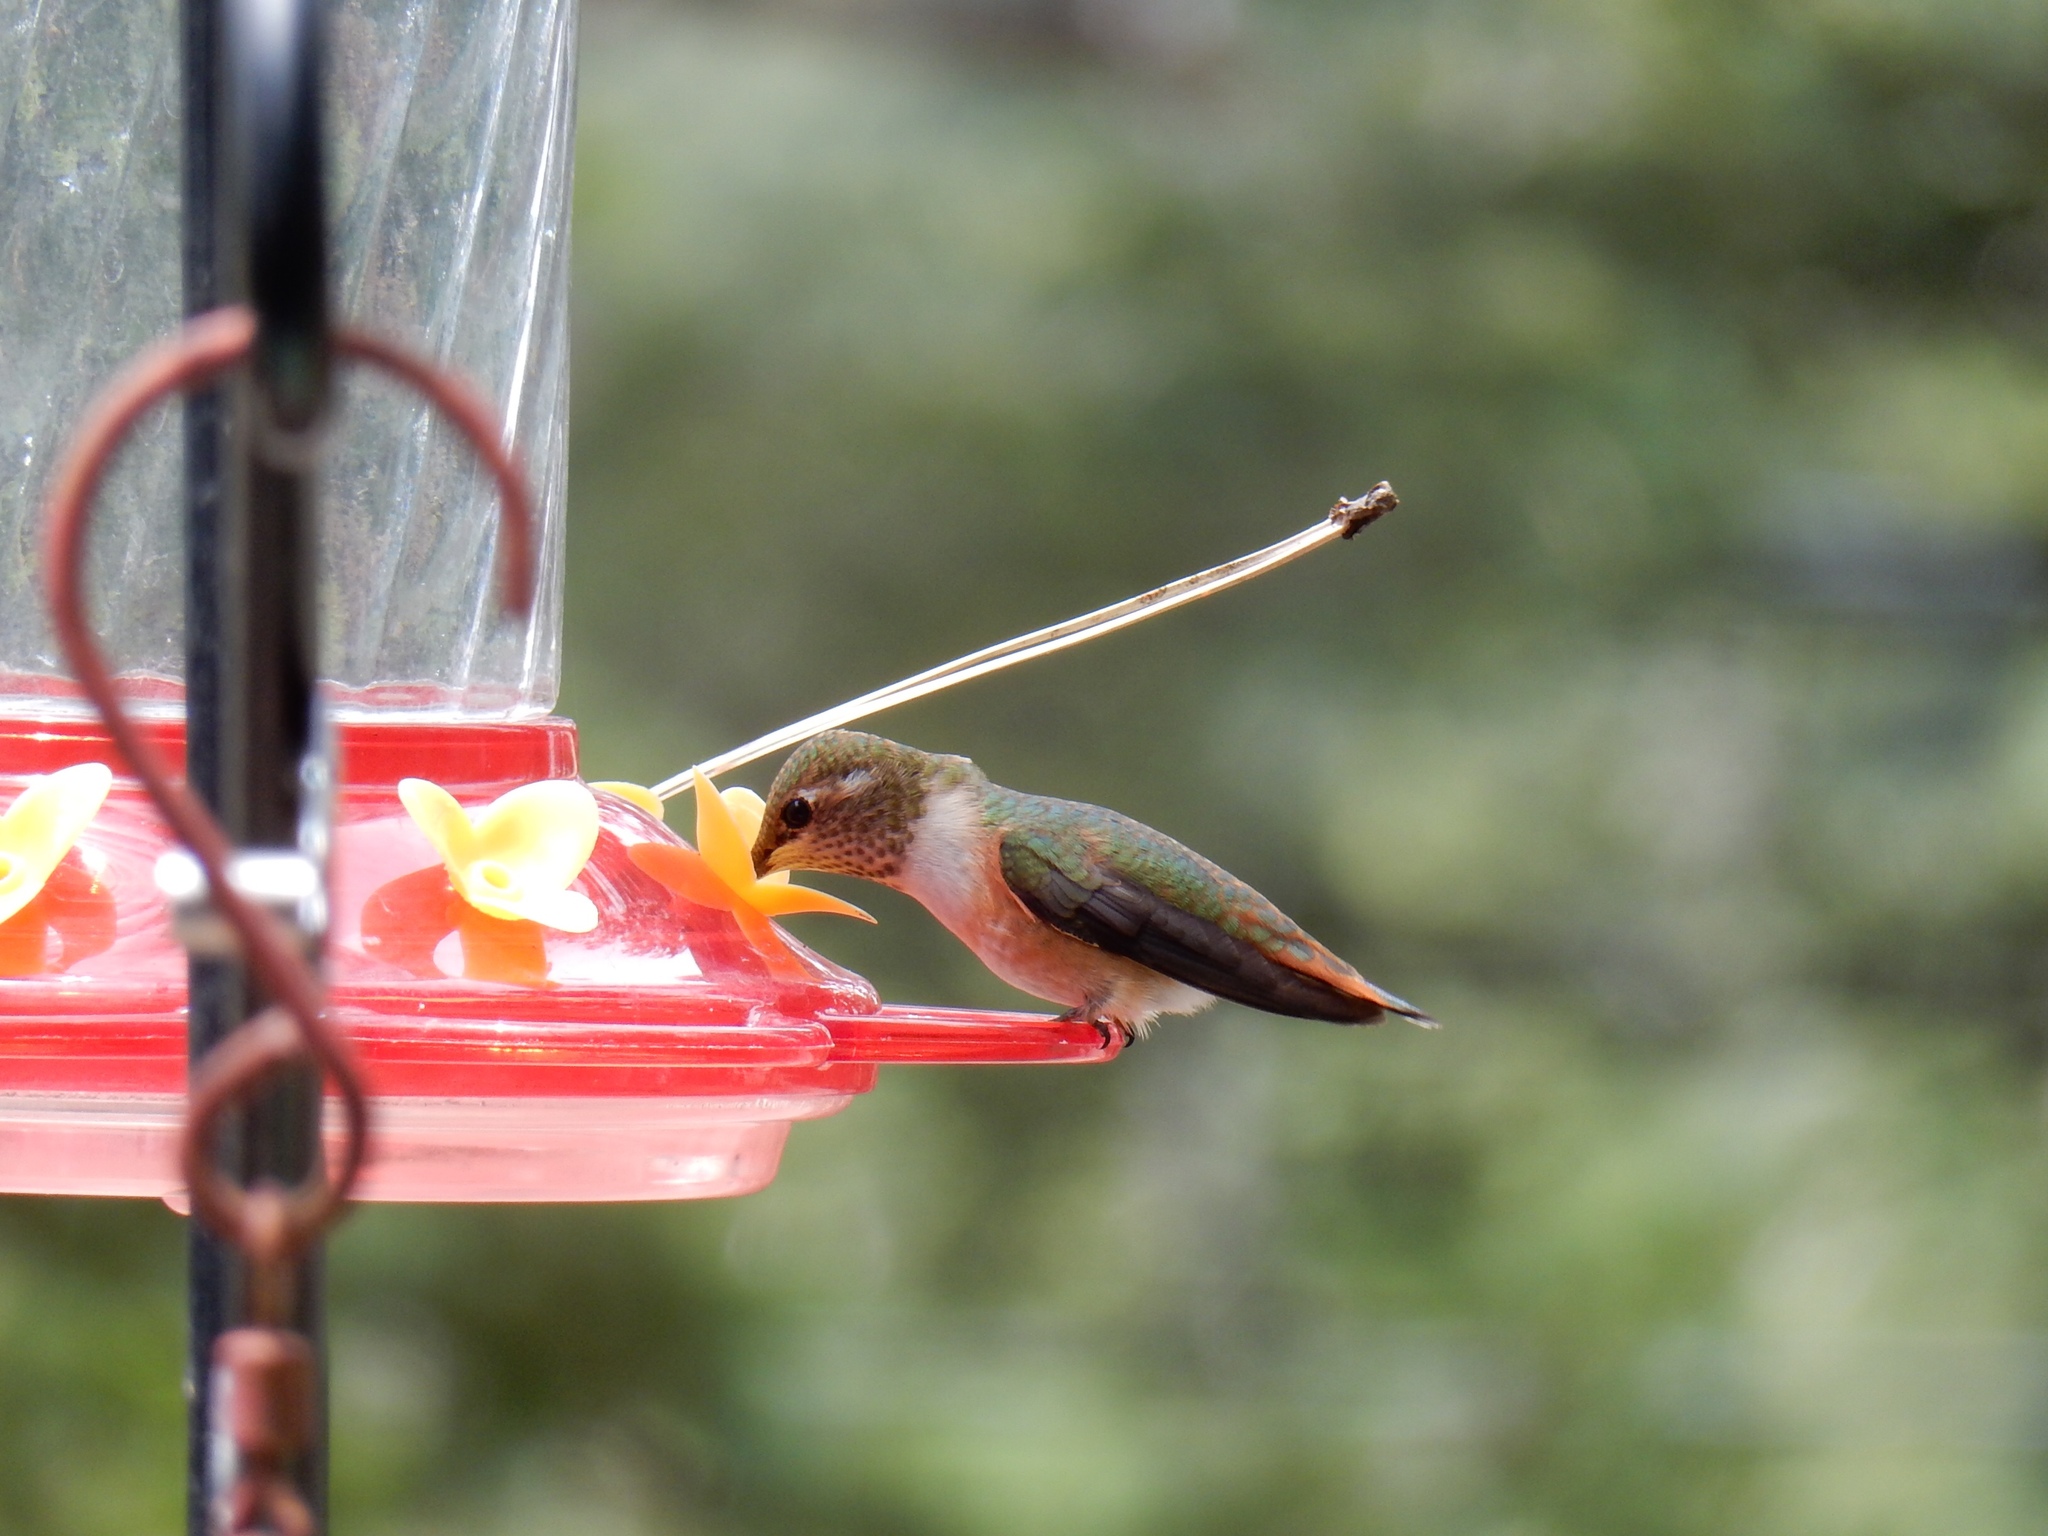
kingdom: Animalia
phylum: Chordata
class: Aves
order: Apodiformes
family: Trochilidae
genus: Selasphorus
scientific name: Selasphorus rufus
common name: Rufous hummingbird
